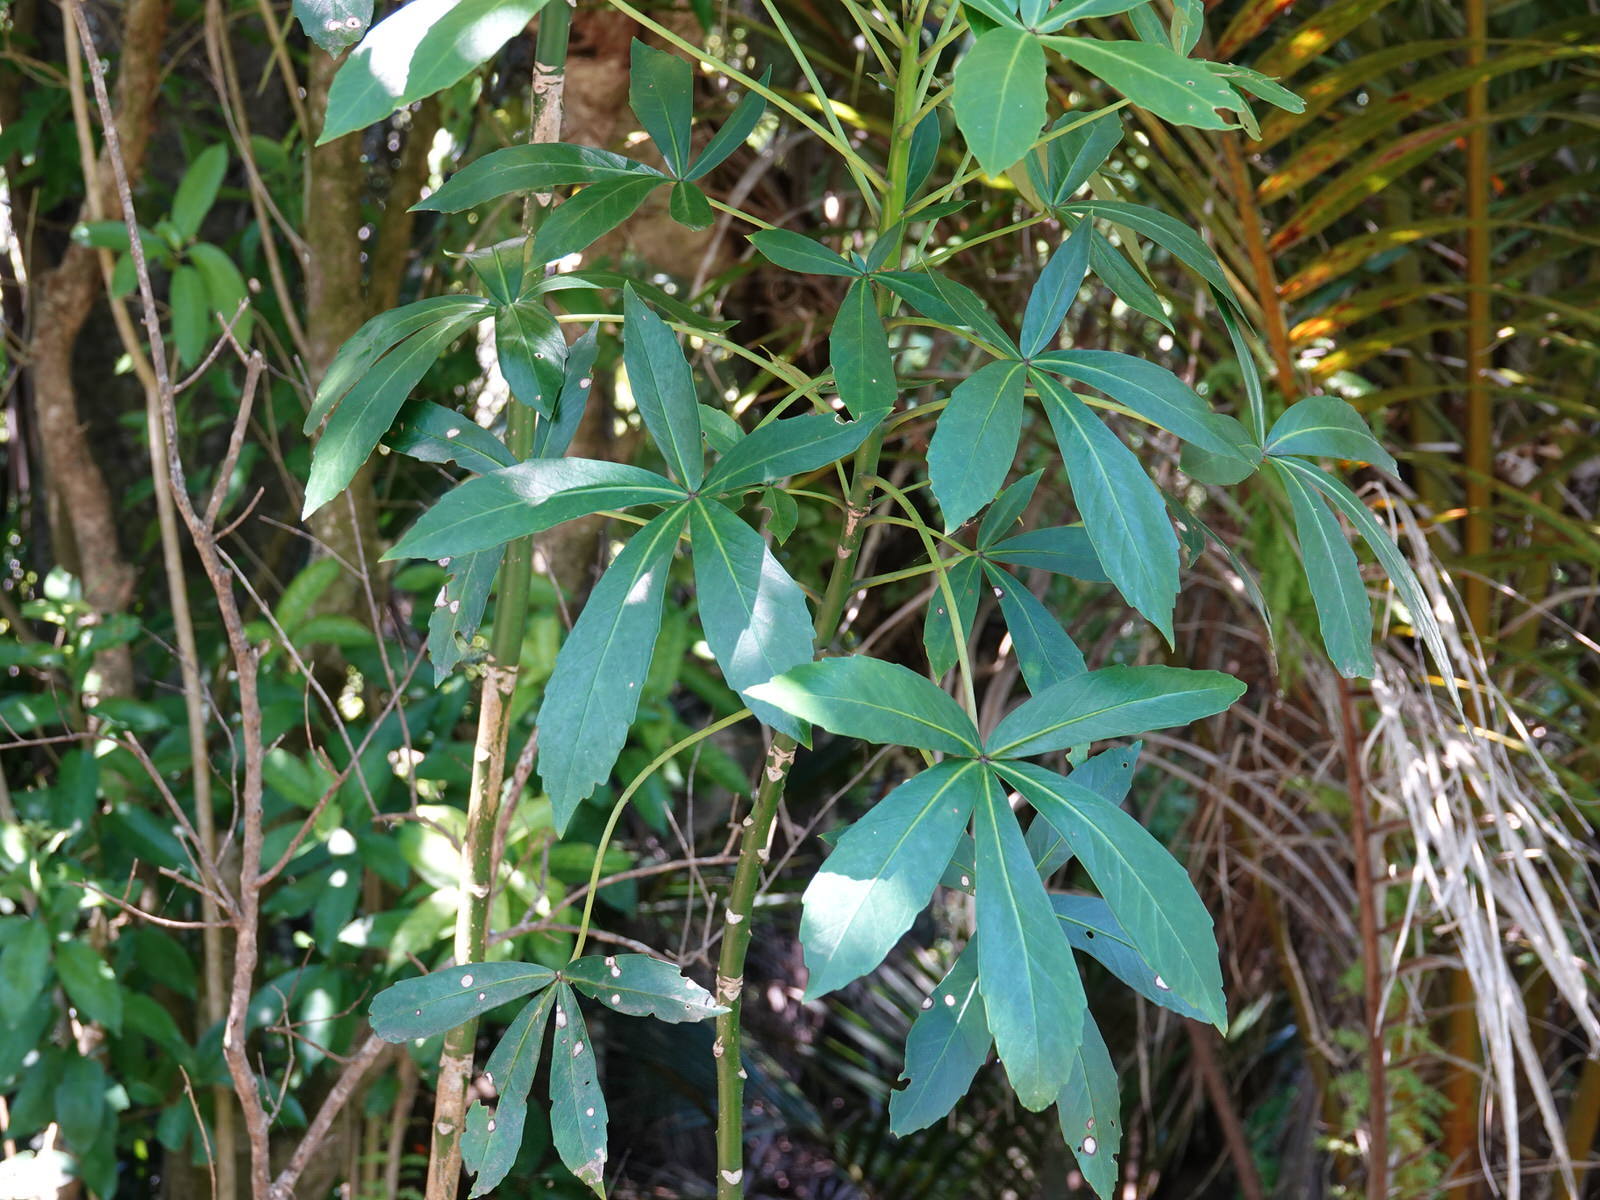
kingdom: Plantae
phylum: Tracheophyta
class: Magnoliopsida
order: Apiales
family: Araliaceae
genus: Pseudopanax
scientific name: Pseudopanax lessonii
